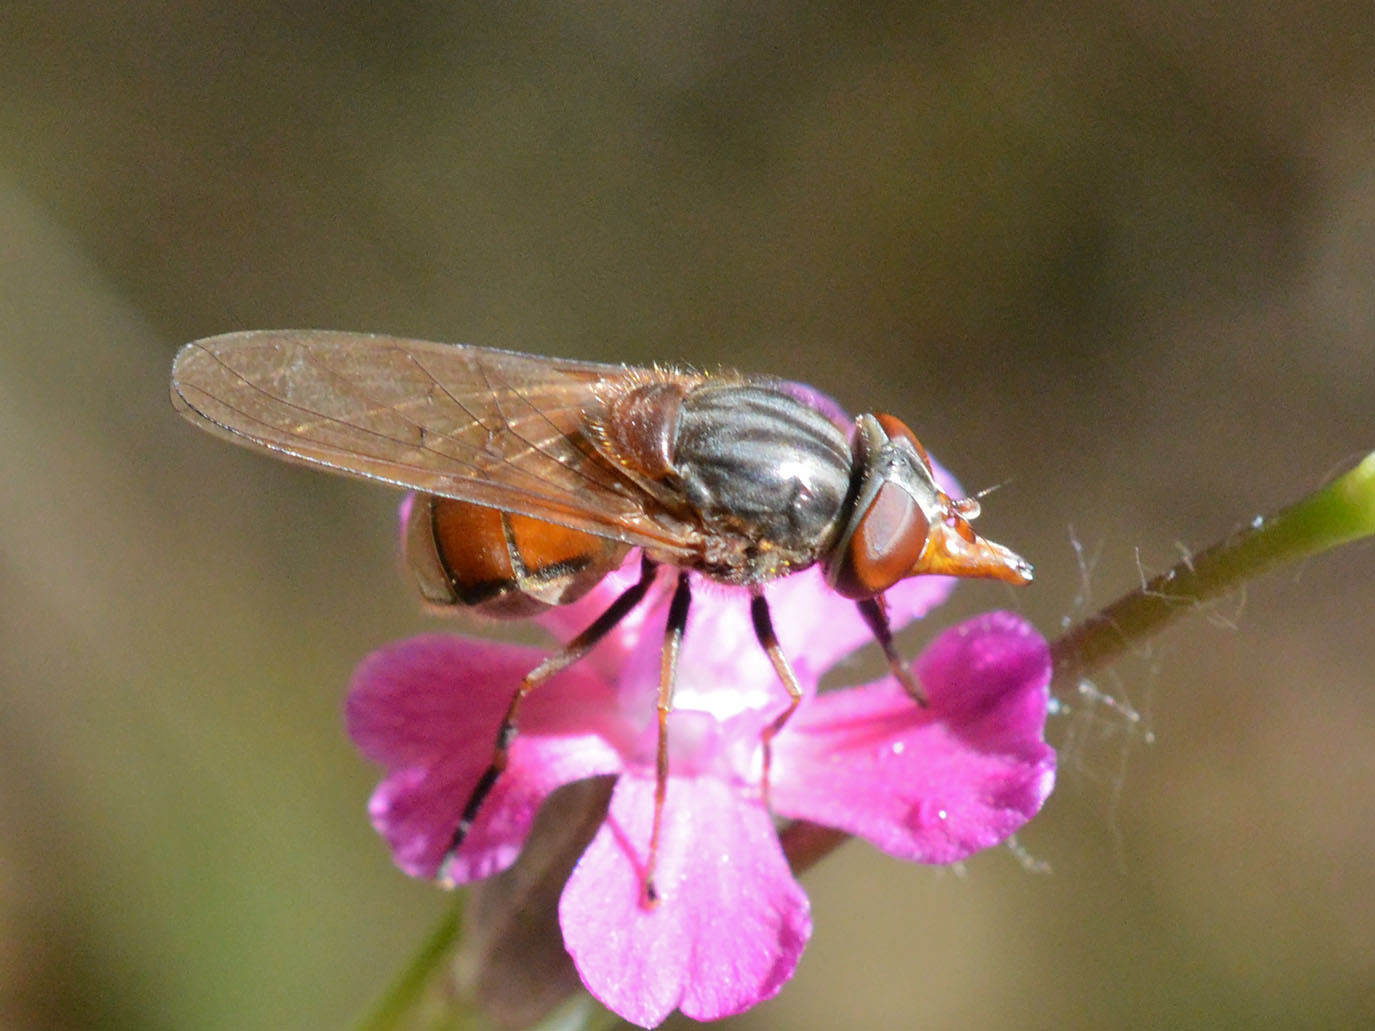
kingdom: Animalia
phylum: Arthropoda
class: Insecta
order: Diptera
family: Syrphidae
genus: Rhingia
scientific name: Rhingia campestris
